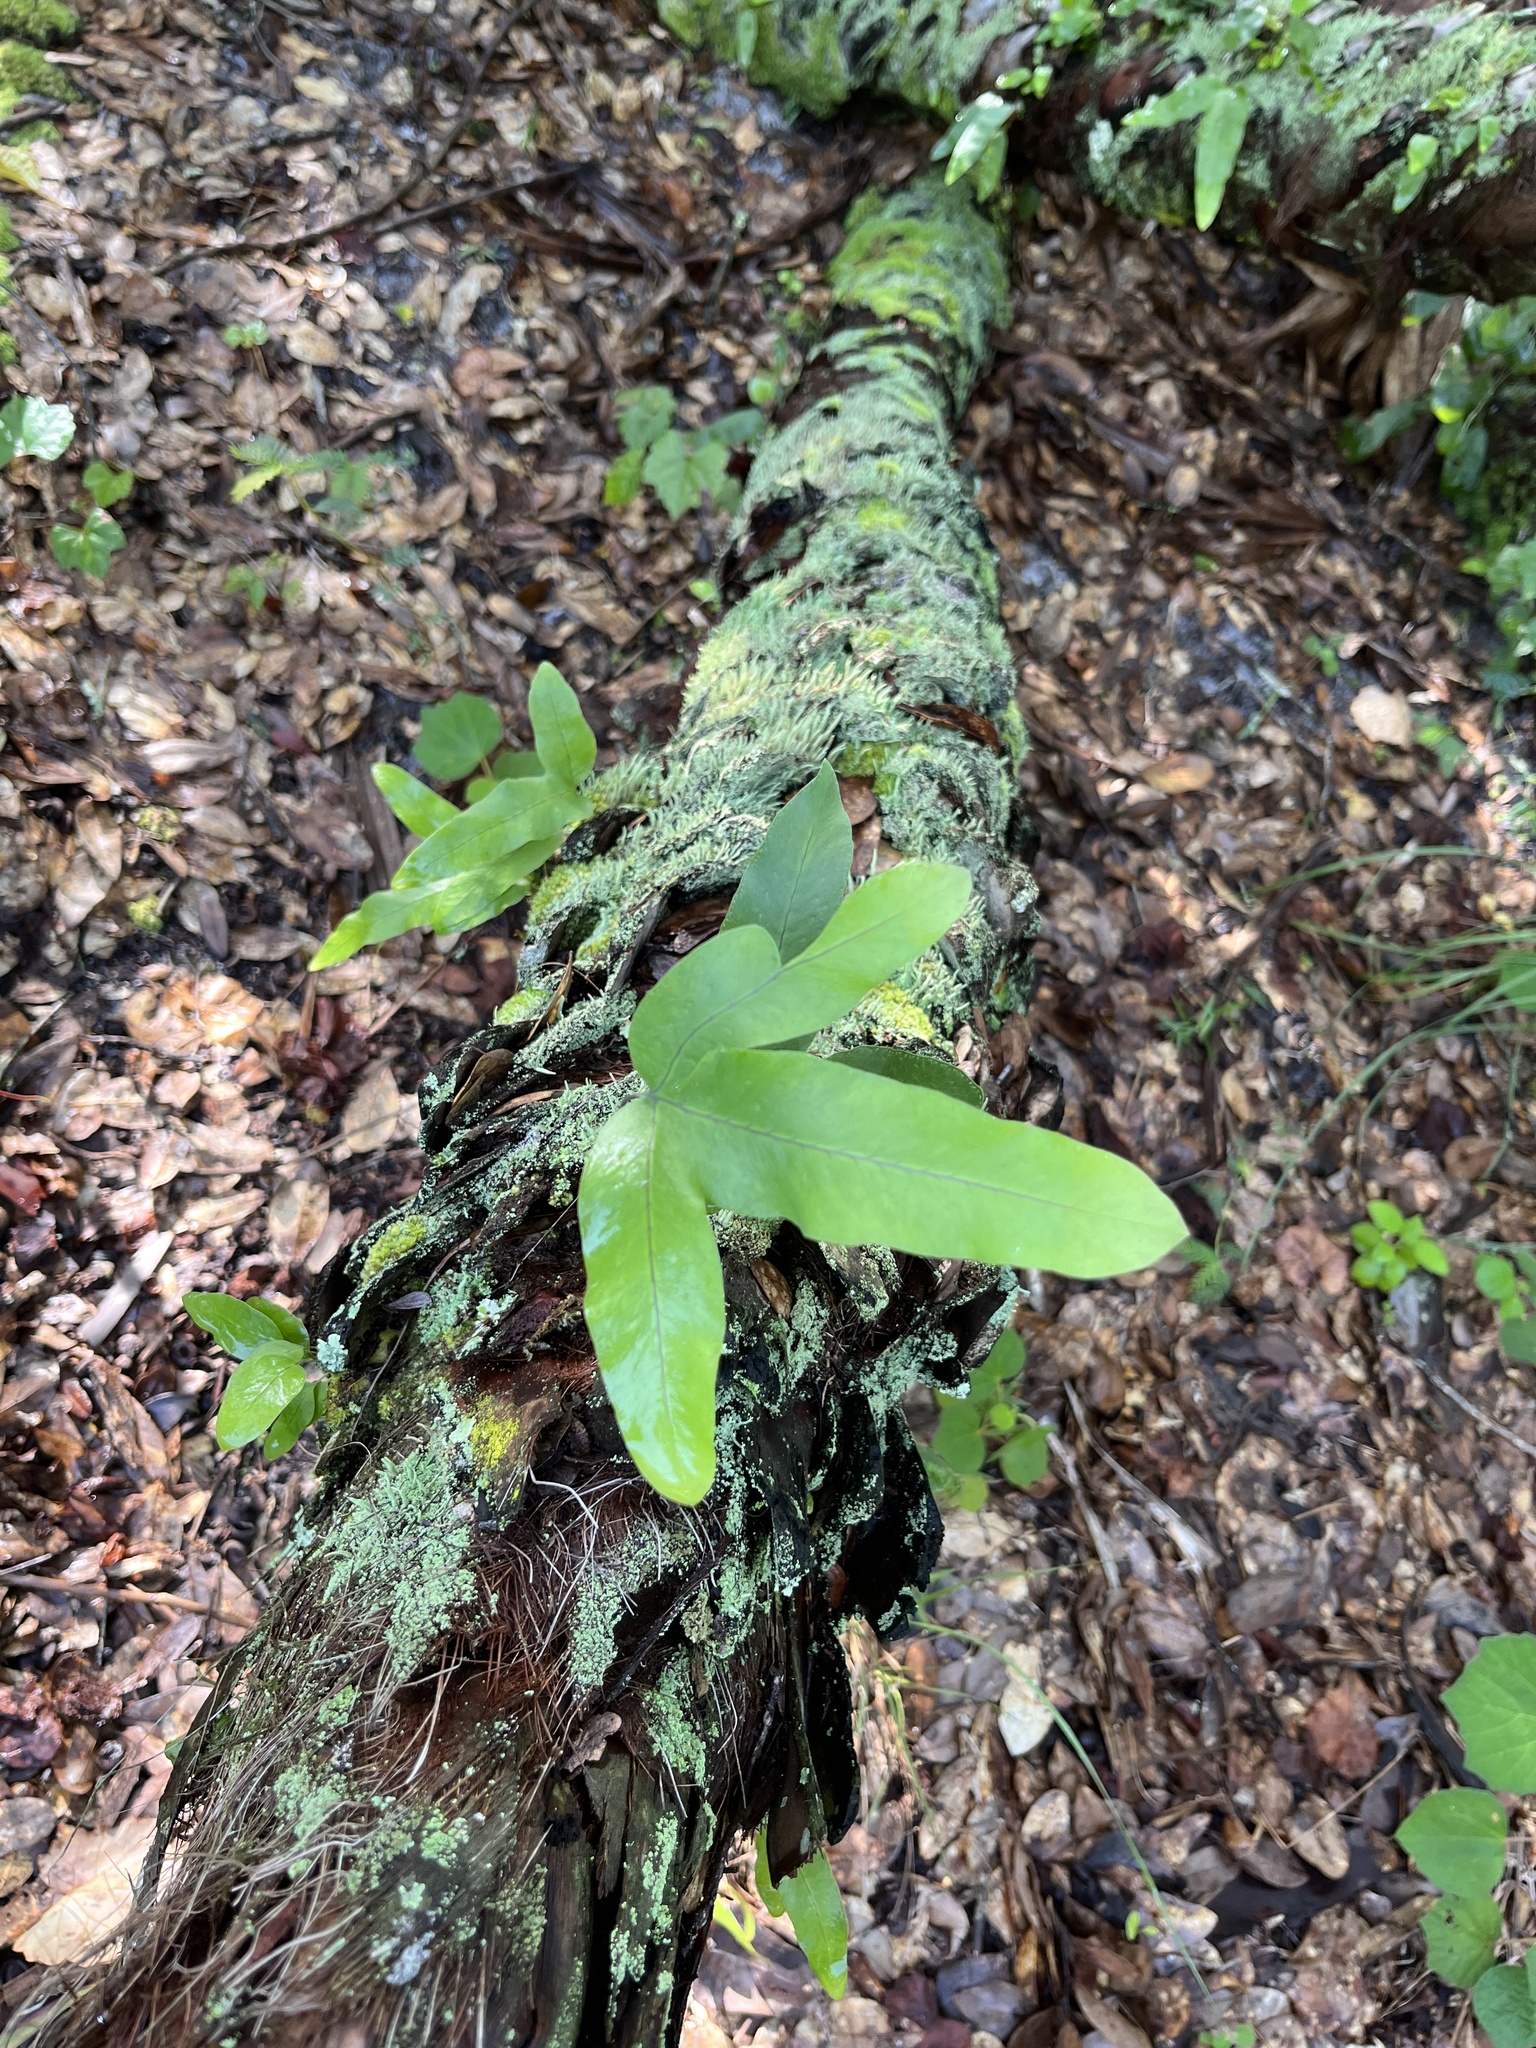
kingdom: Plantae
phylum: Tracheophyta
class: Polypodiopsida
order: Polypodiales
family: Polypodiaceae
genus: Phlebodium
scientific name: Phlebodium aureum
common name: Gold-foot fern
